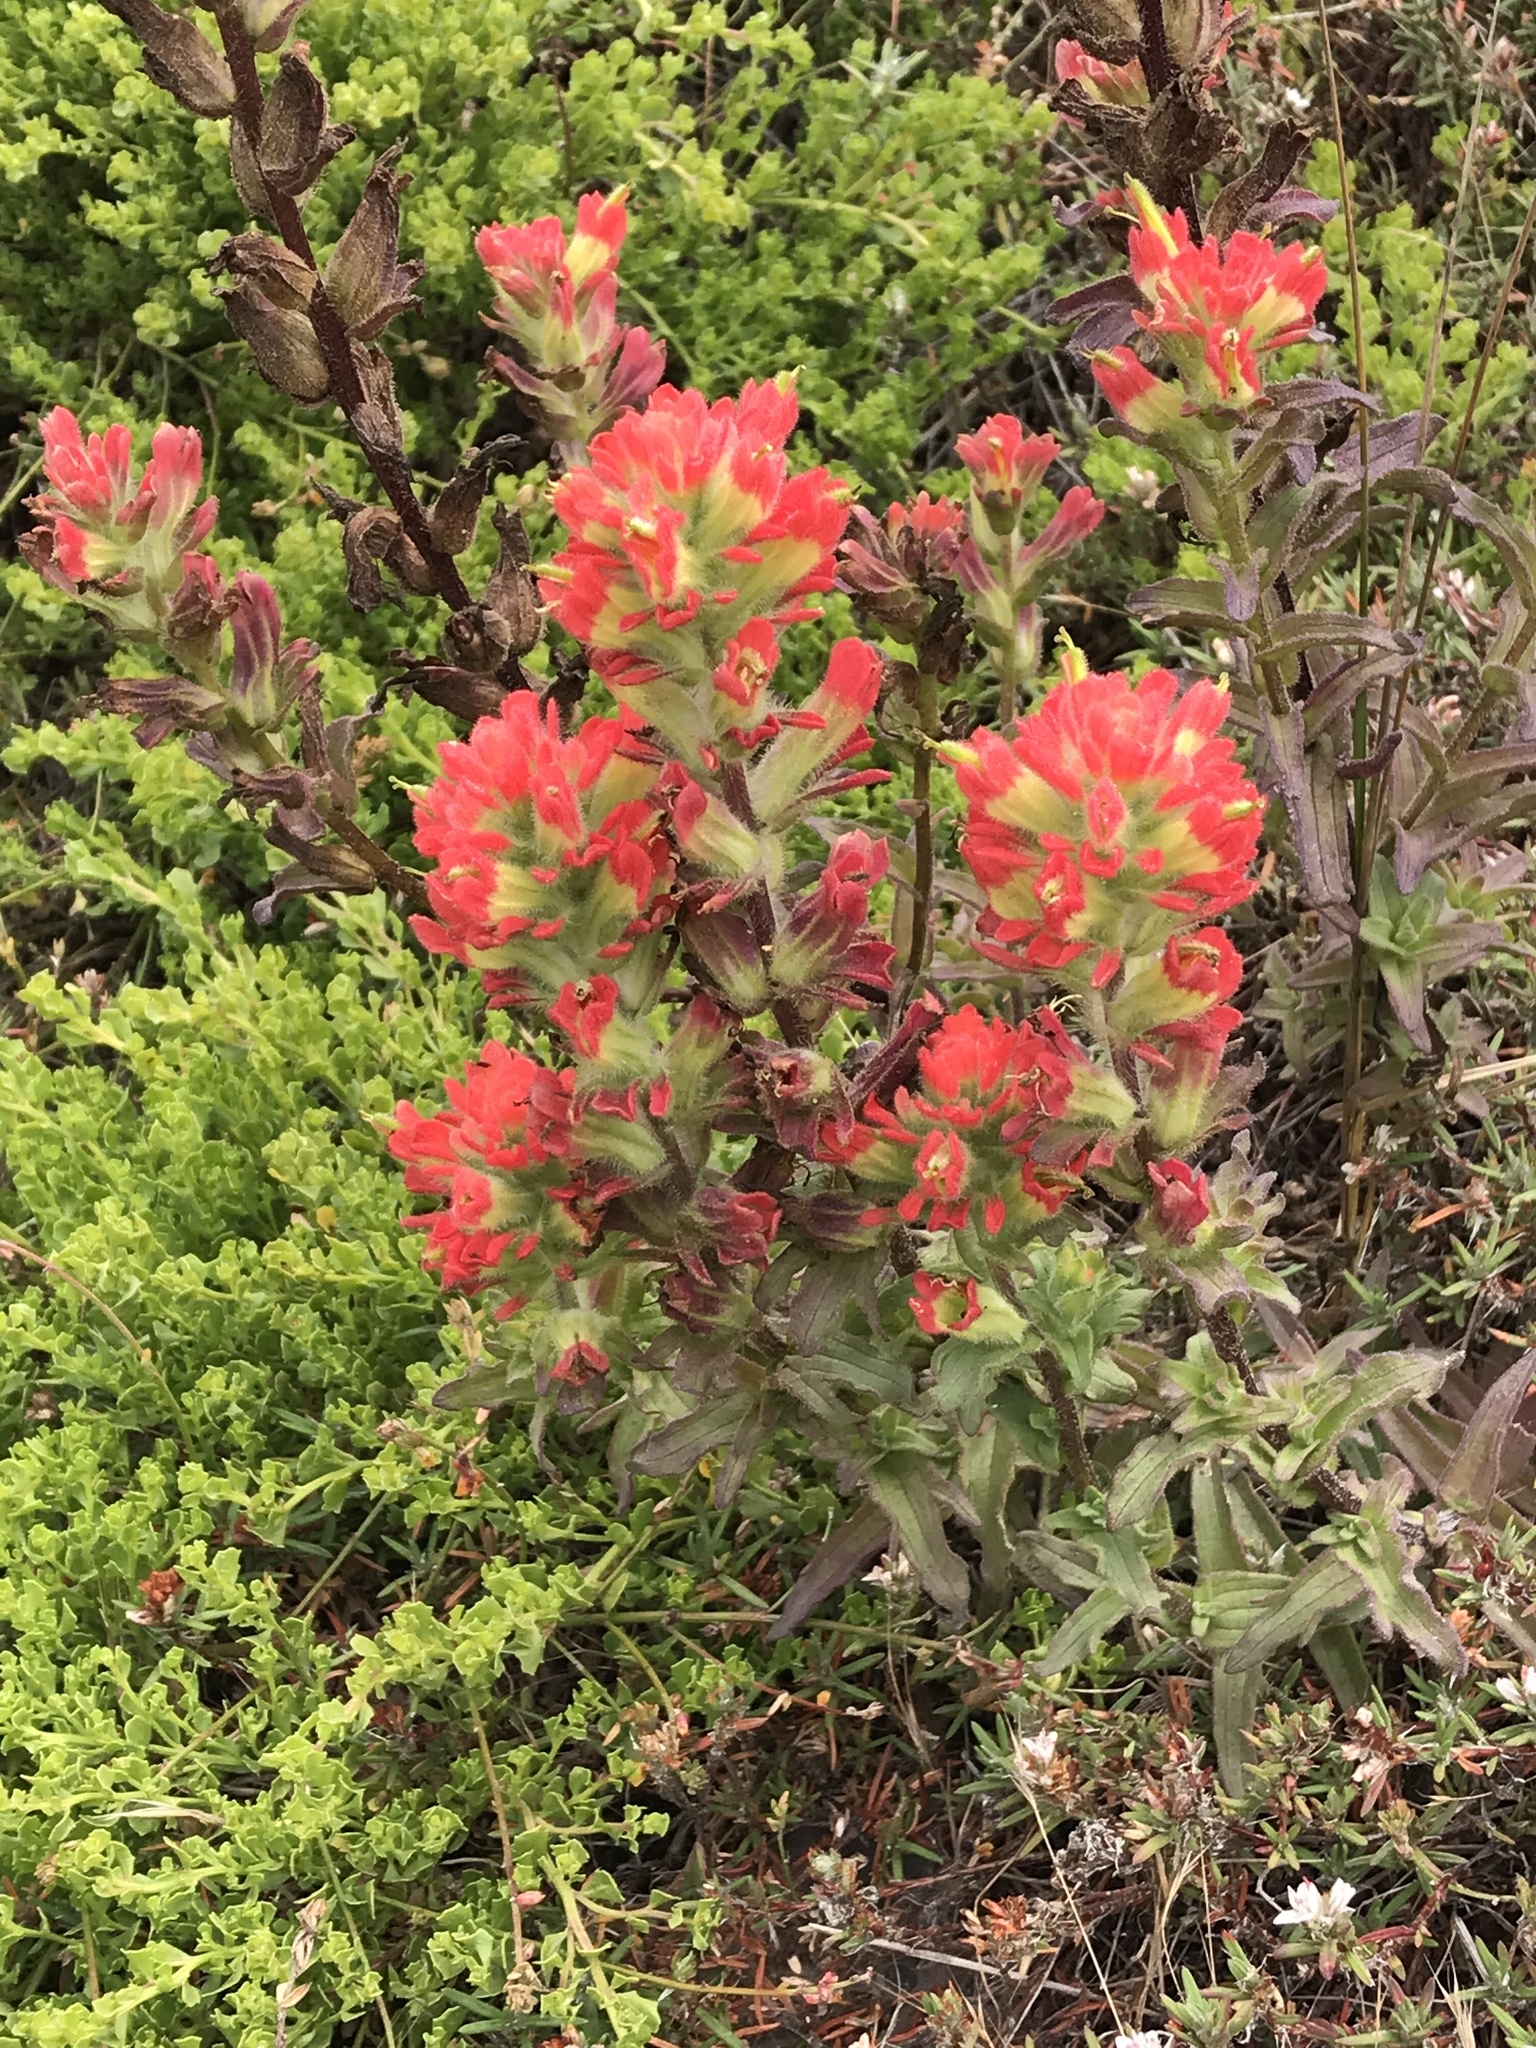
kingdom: Plantae
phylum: Tracheophyta
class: Magnoliopsida
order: Lamiales
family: Orobanchaceae
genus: Castilleja
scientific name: Castilleja affinis
